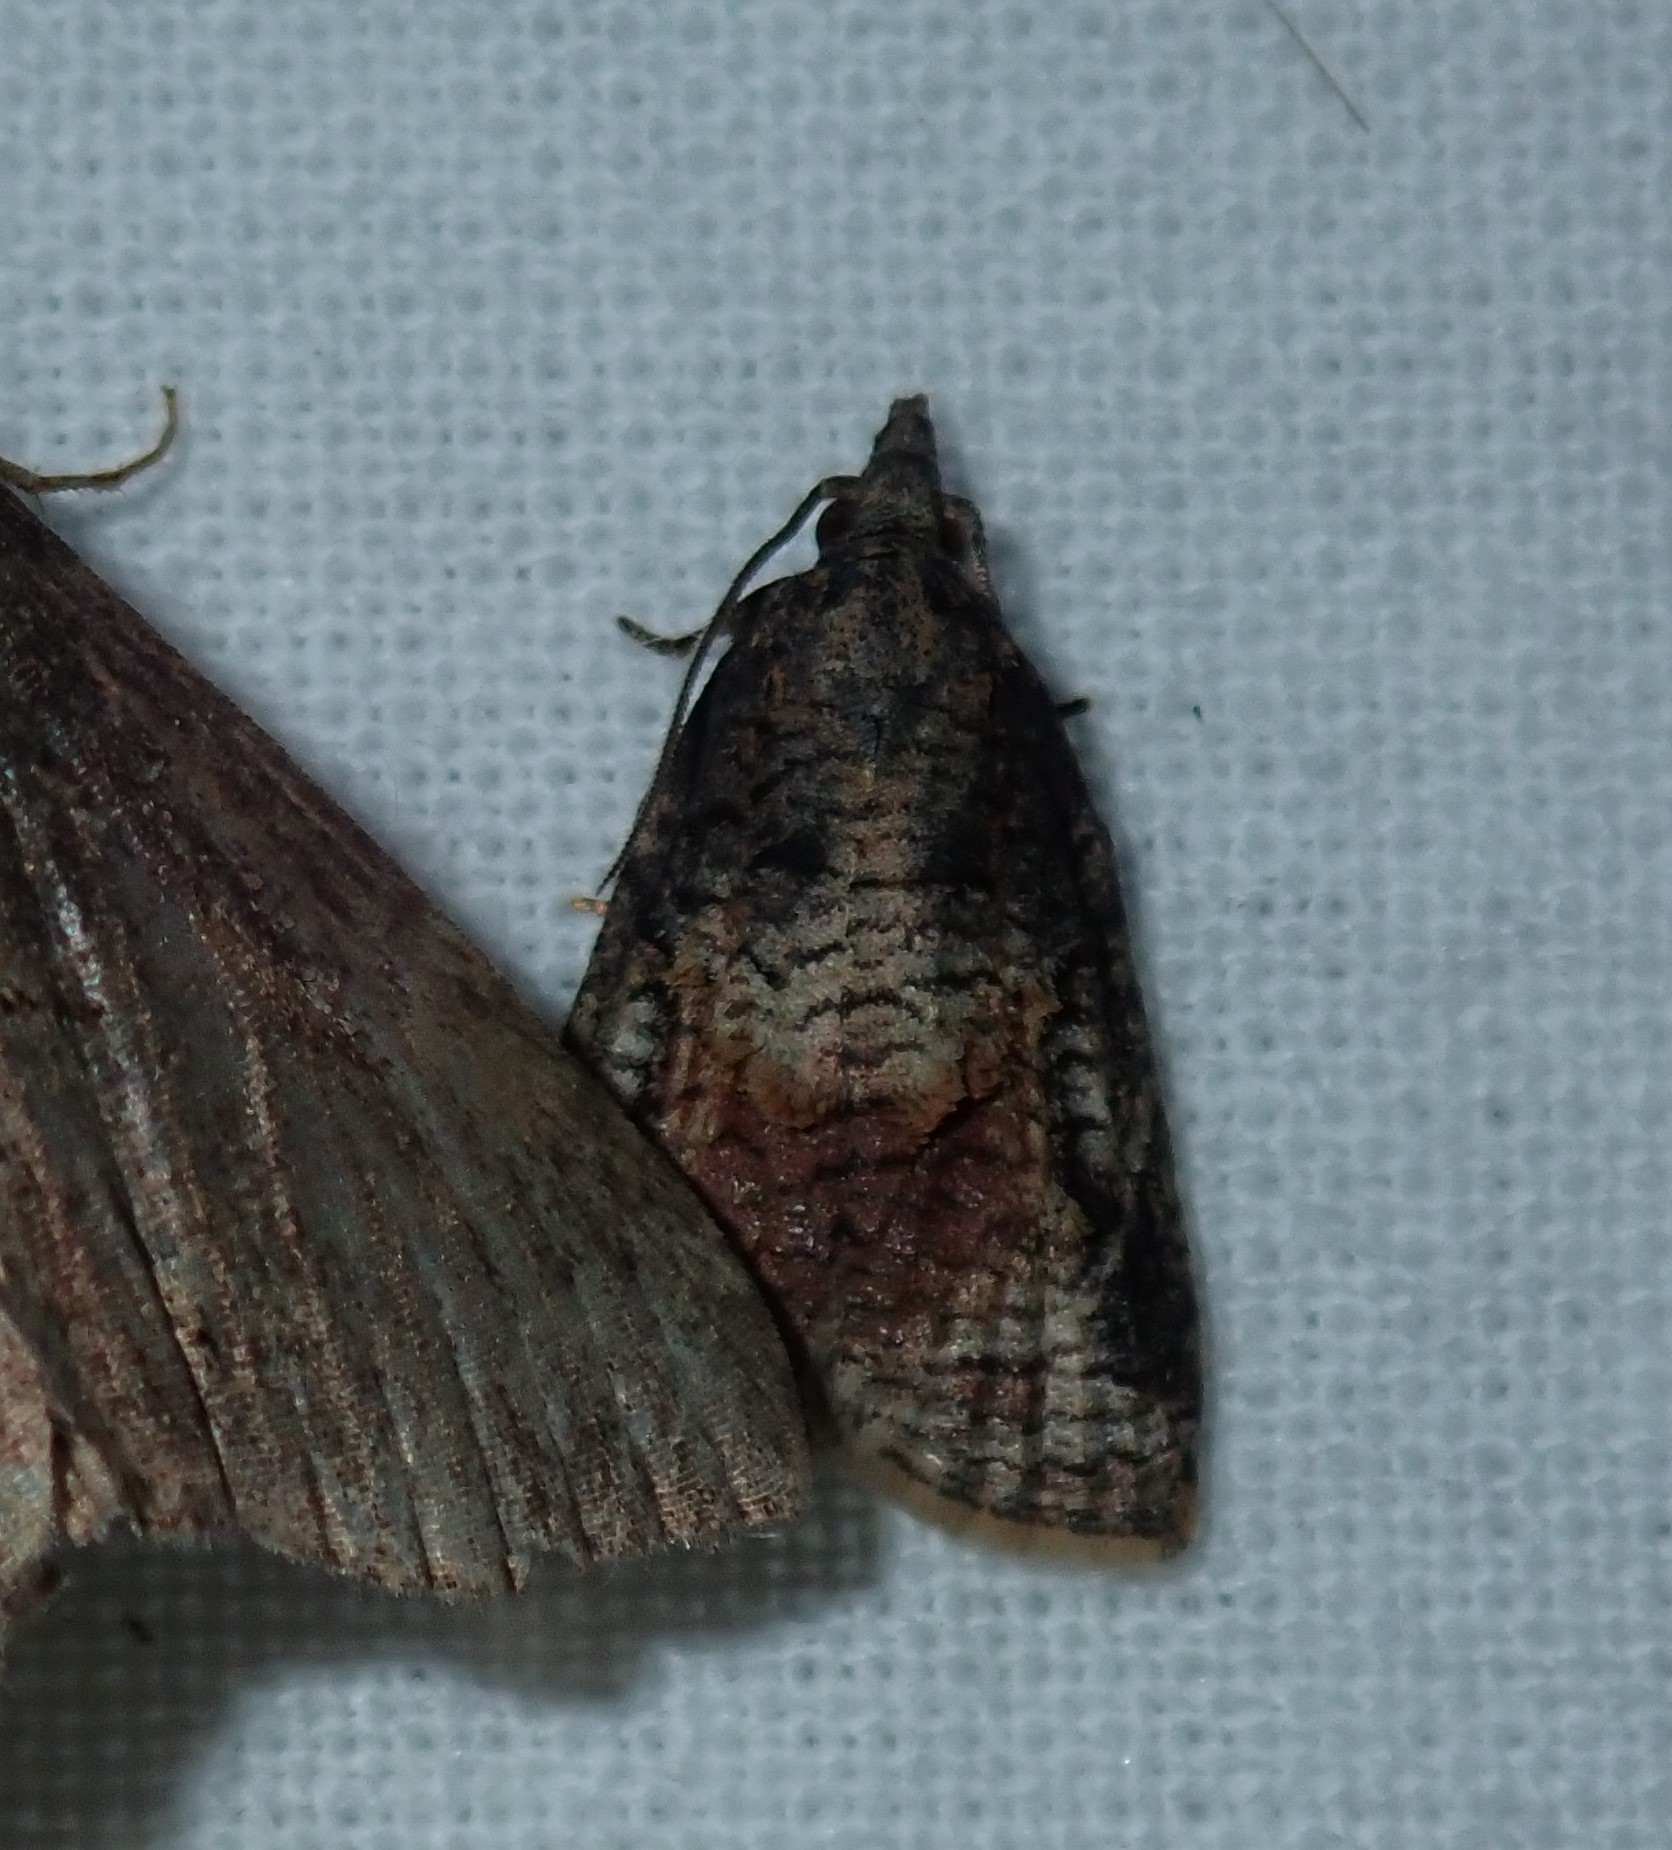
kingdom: Animalia
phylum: Arthropoda
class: Insecta
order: Lepidoptera
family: Tortricidae
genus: Platynota
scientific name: Platynota idaeusalis
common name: Tufted apple bud moth
